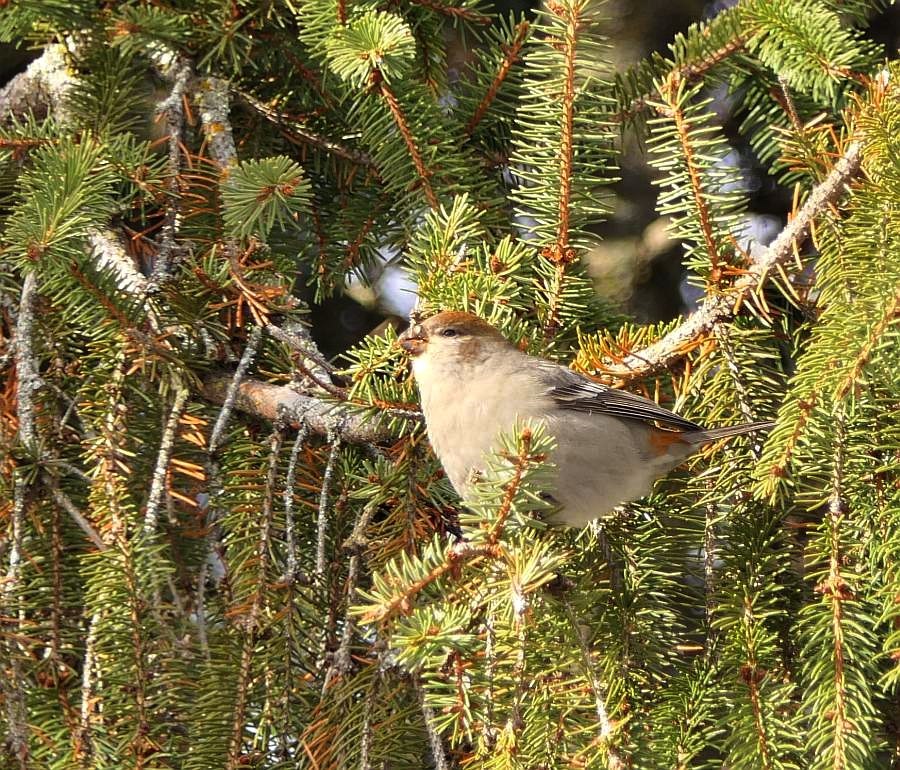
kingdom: Animalia
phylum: Chordata
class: Aves
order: Passeriformes
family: Fringillidae
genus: Pinicola
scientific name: Pinicola enucleator
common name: Pine grosbeak
